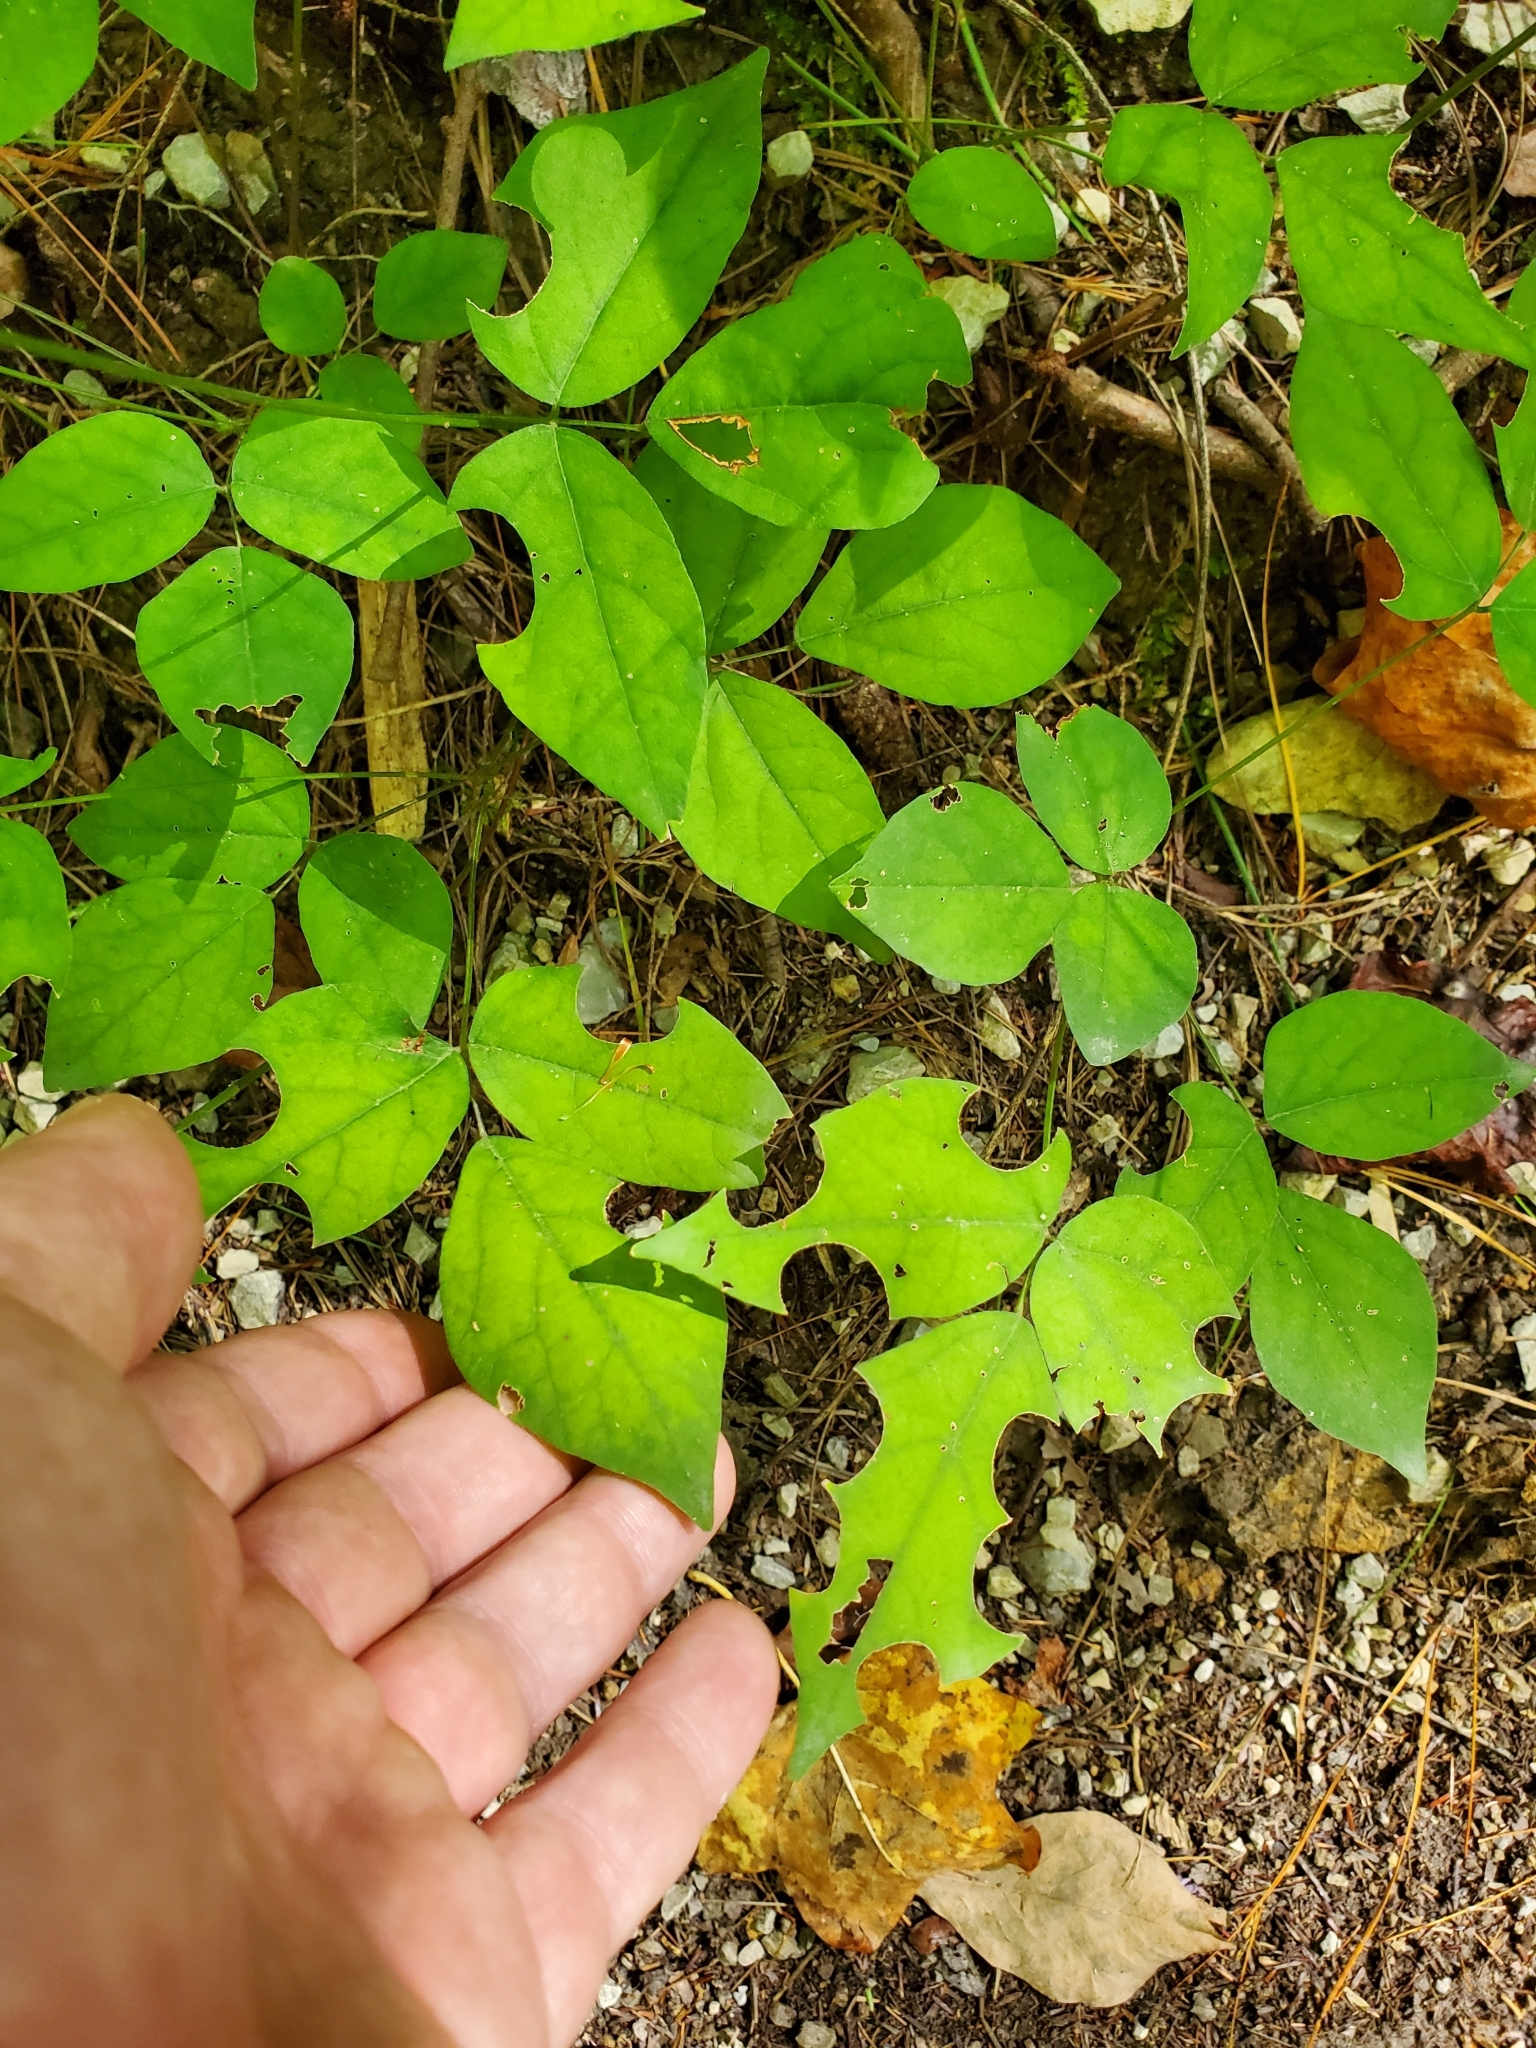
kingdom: Plantae
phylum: Tracheophyta
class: Magnoliopsida
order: Fabales
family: Fabaceae
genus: Hylodesmum
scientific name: Hylodesmum nudiflorum
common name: Bare-stemmed tick-trefoil
